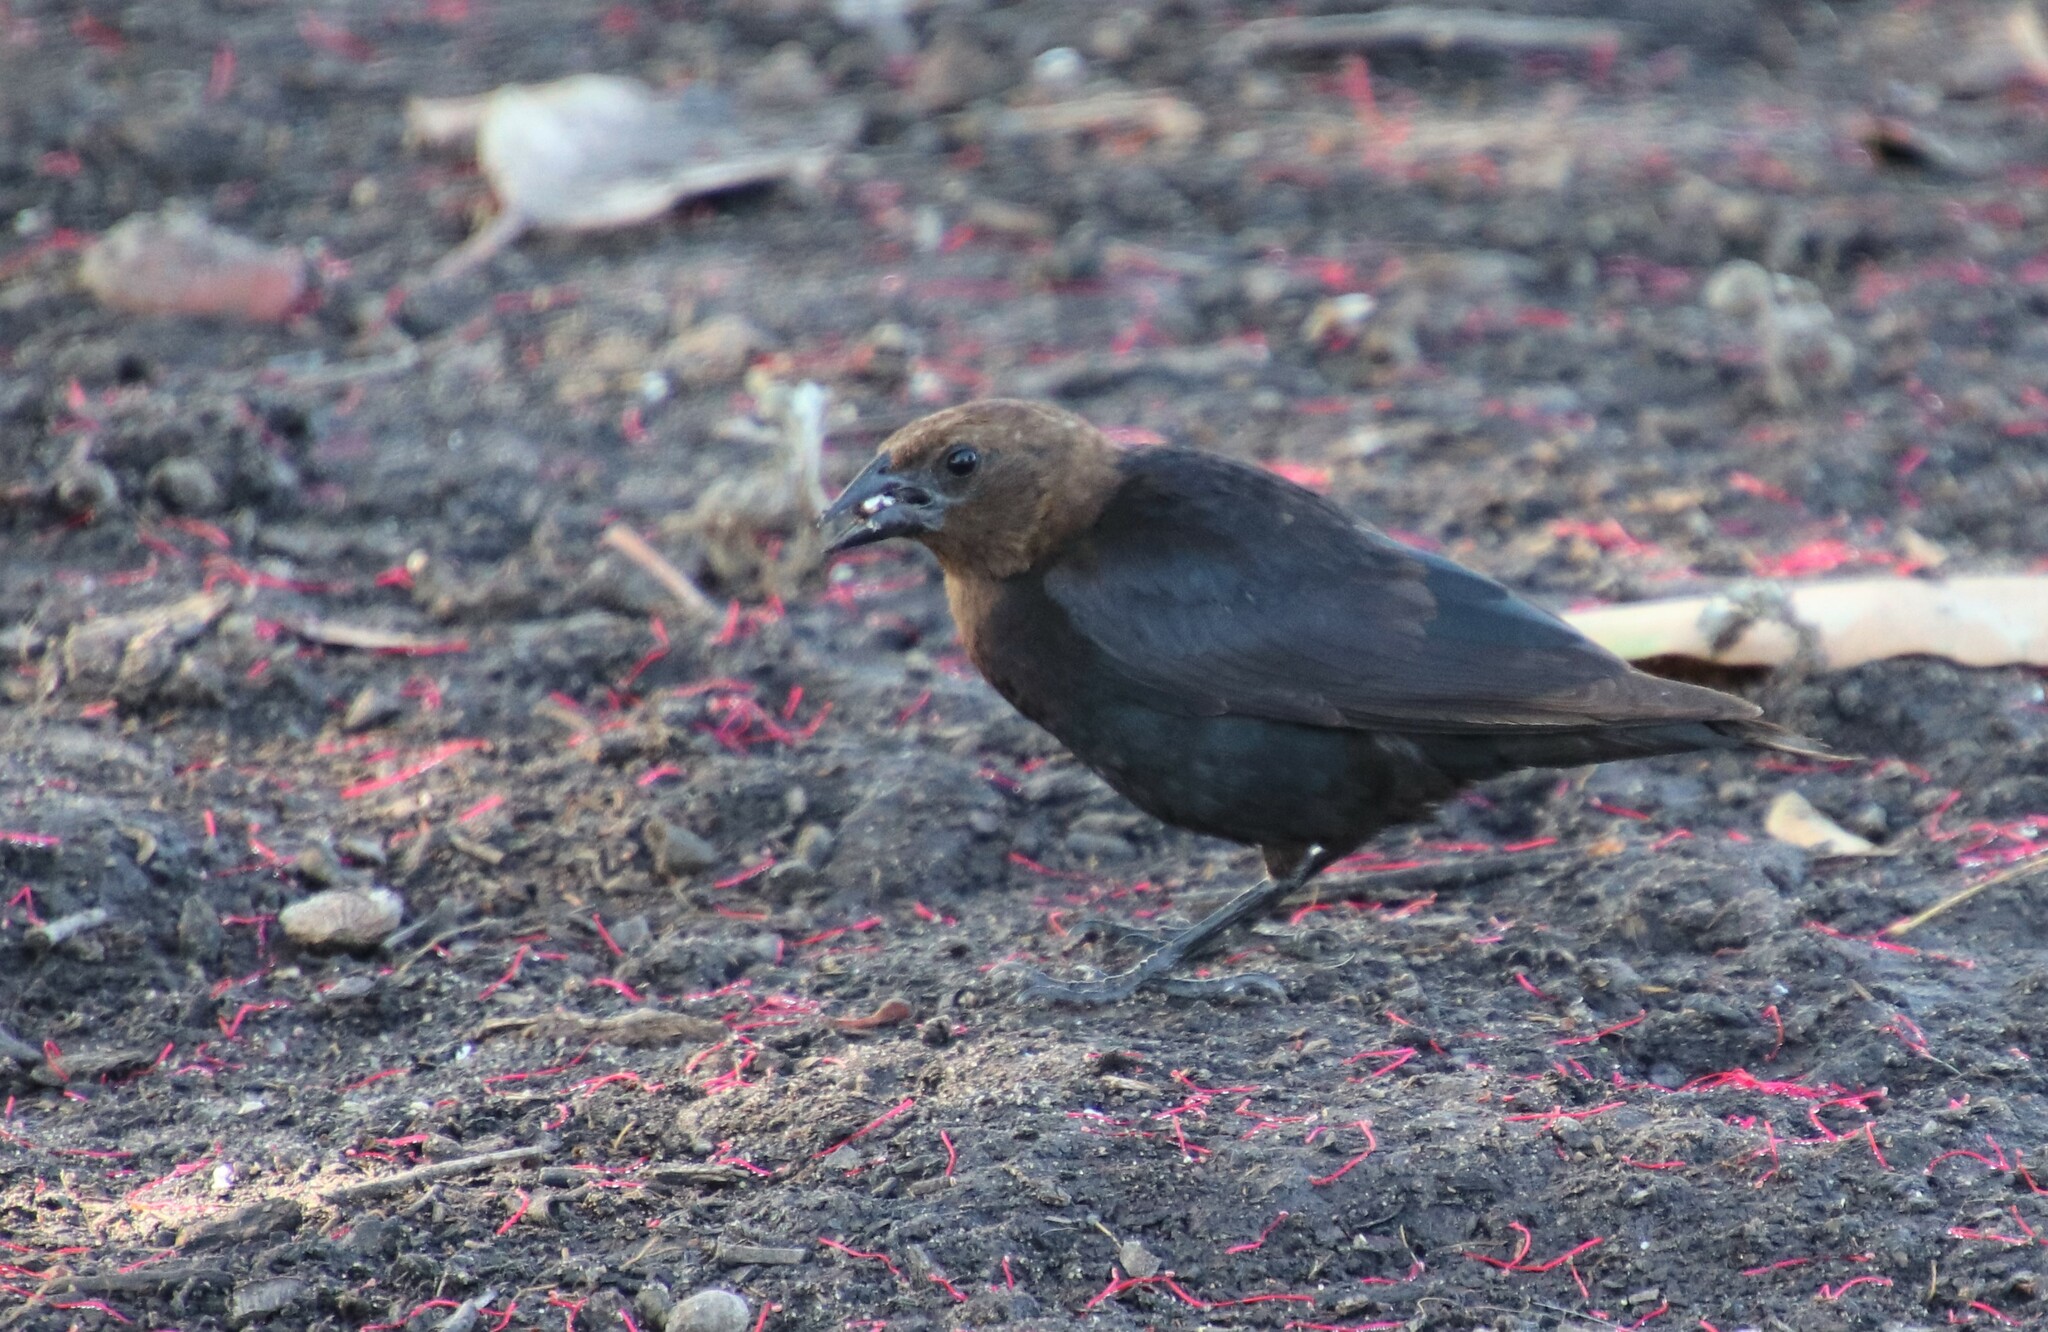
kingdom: Animalia
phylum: Chordata
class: Aves
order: Passeriformes
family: Icteridae
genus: Molothrus
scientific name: Molothrus ater
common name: Brown-headed cowbird
